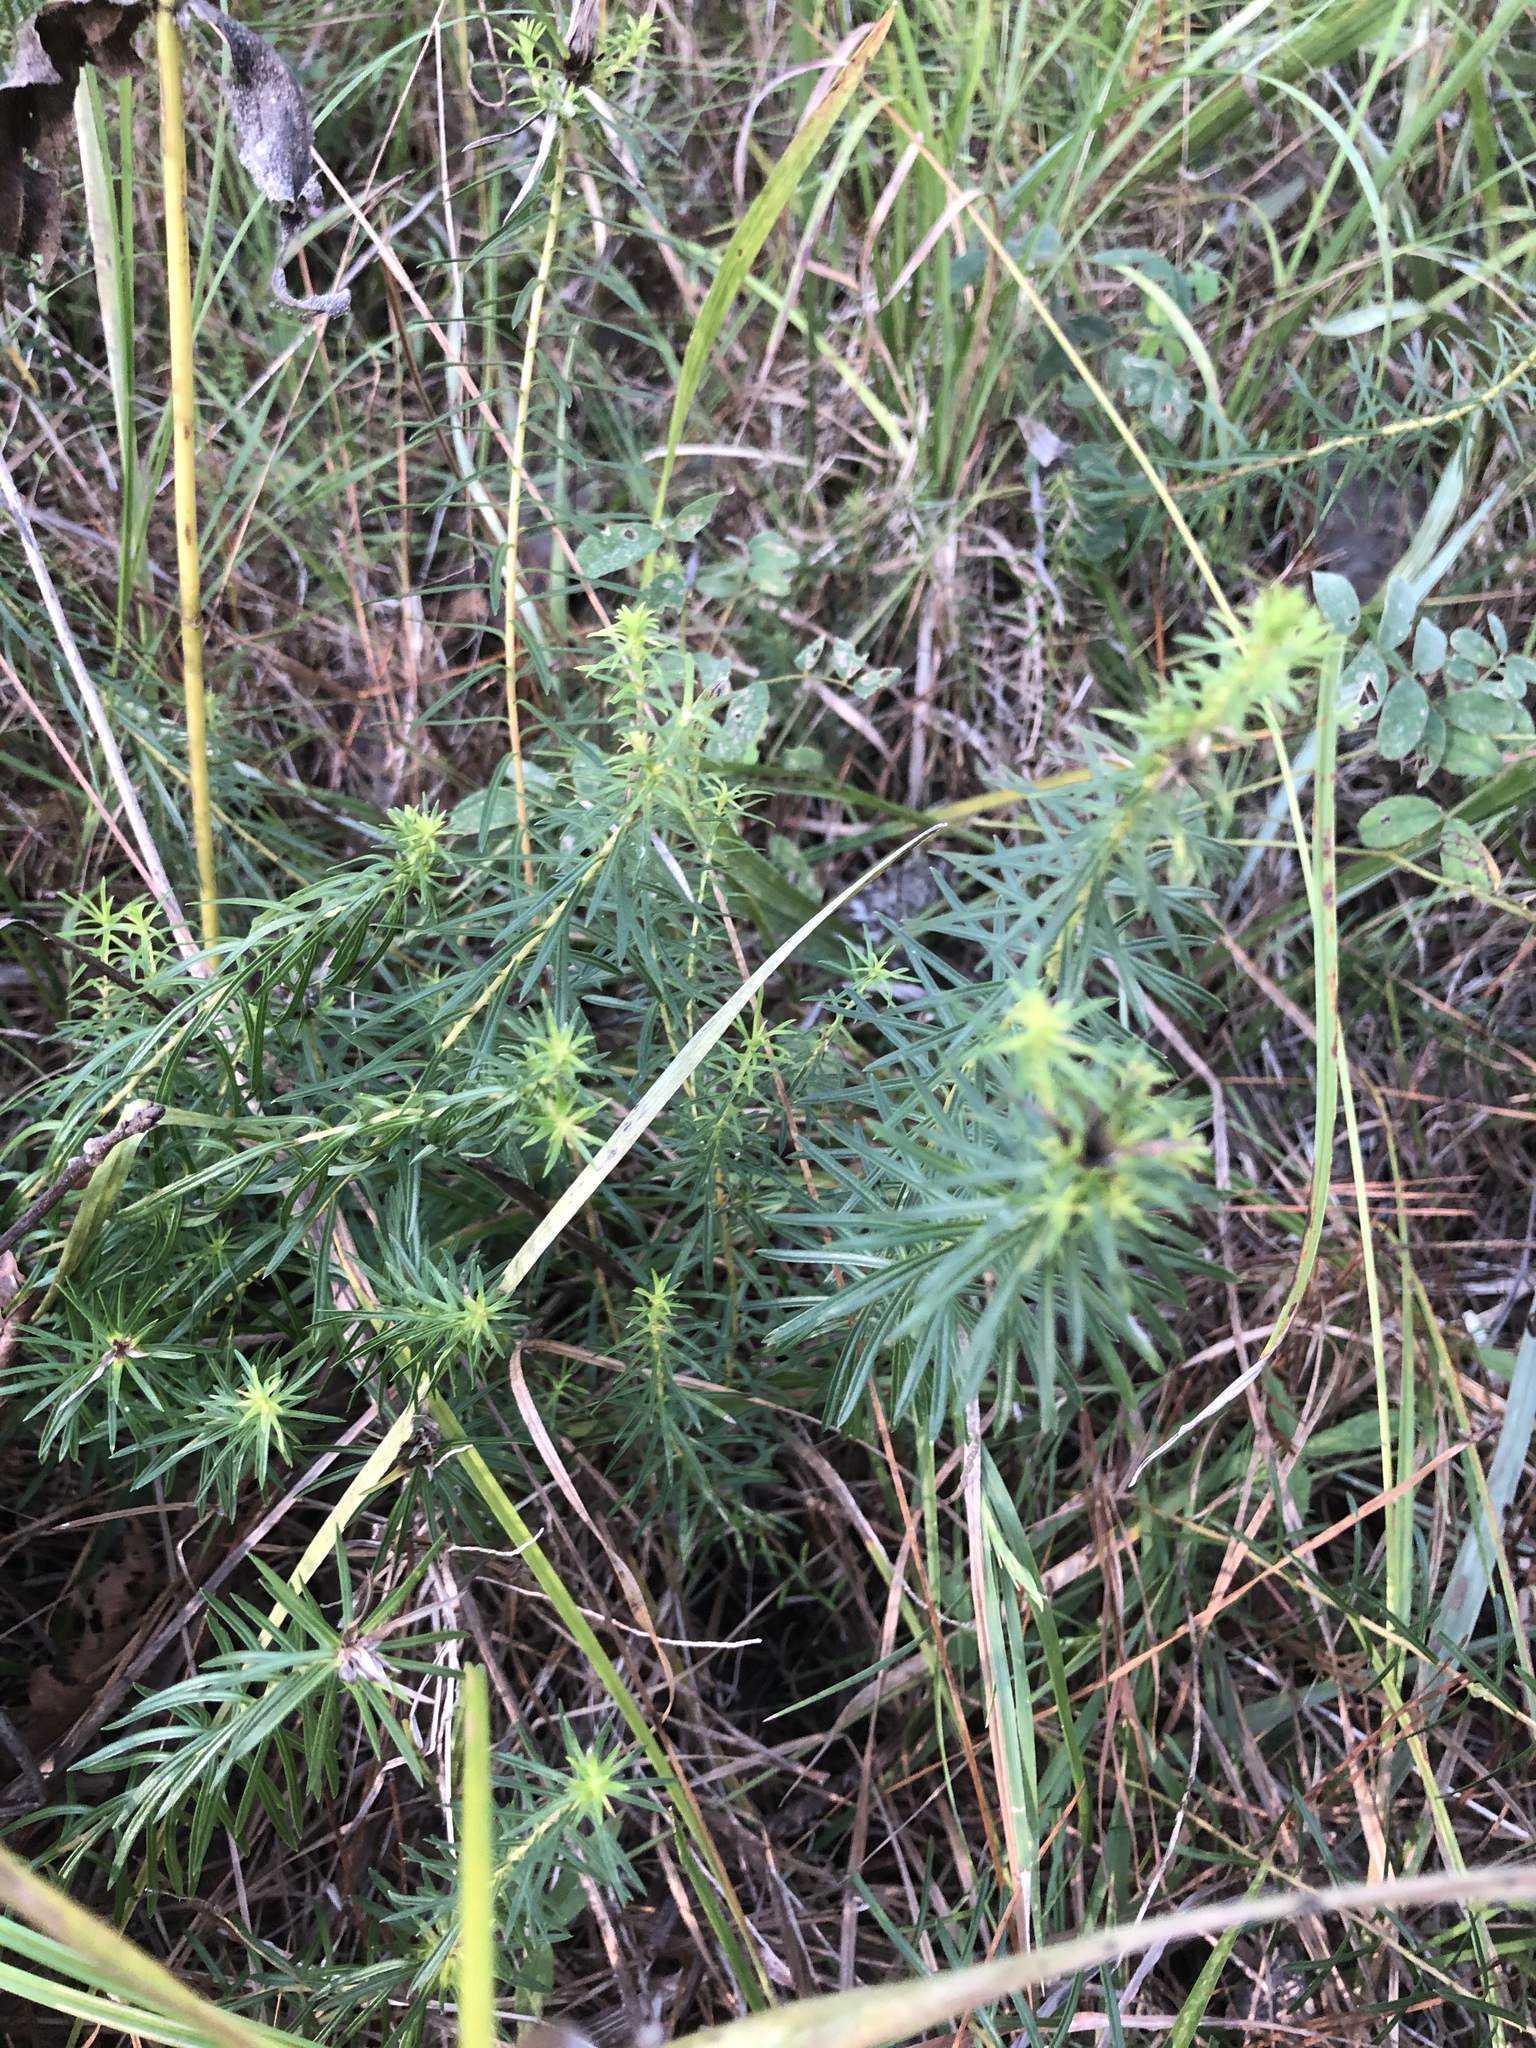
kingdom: Plantae
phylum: Tracheophyta
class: Magnoliopsida
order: Asterales
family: Asteraceae
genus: Ionactis
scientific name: Ionactis repens
